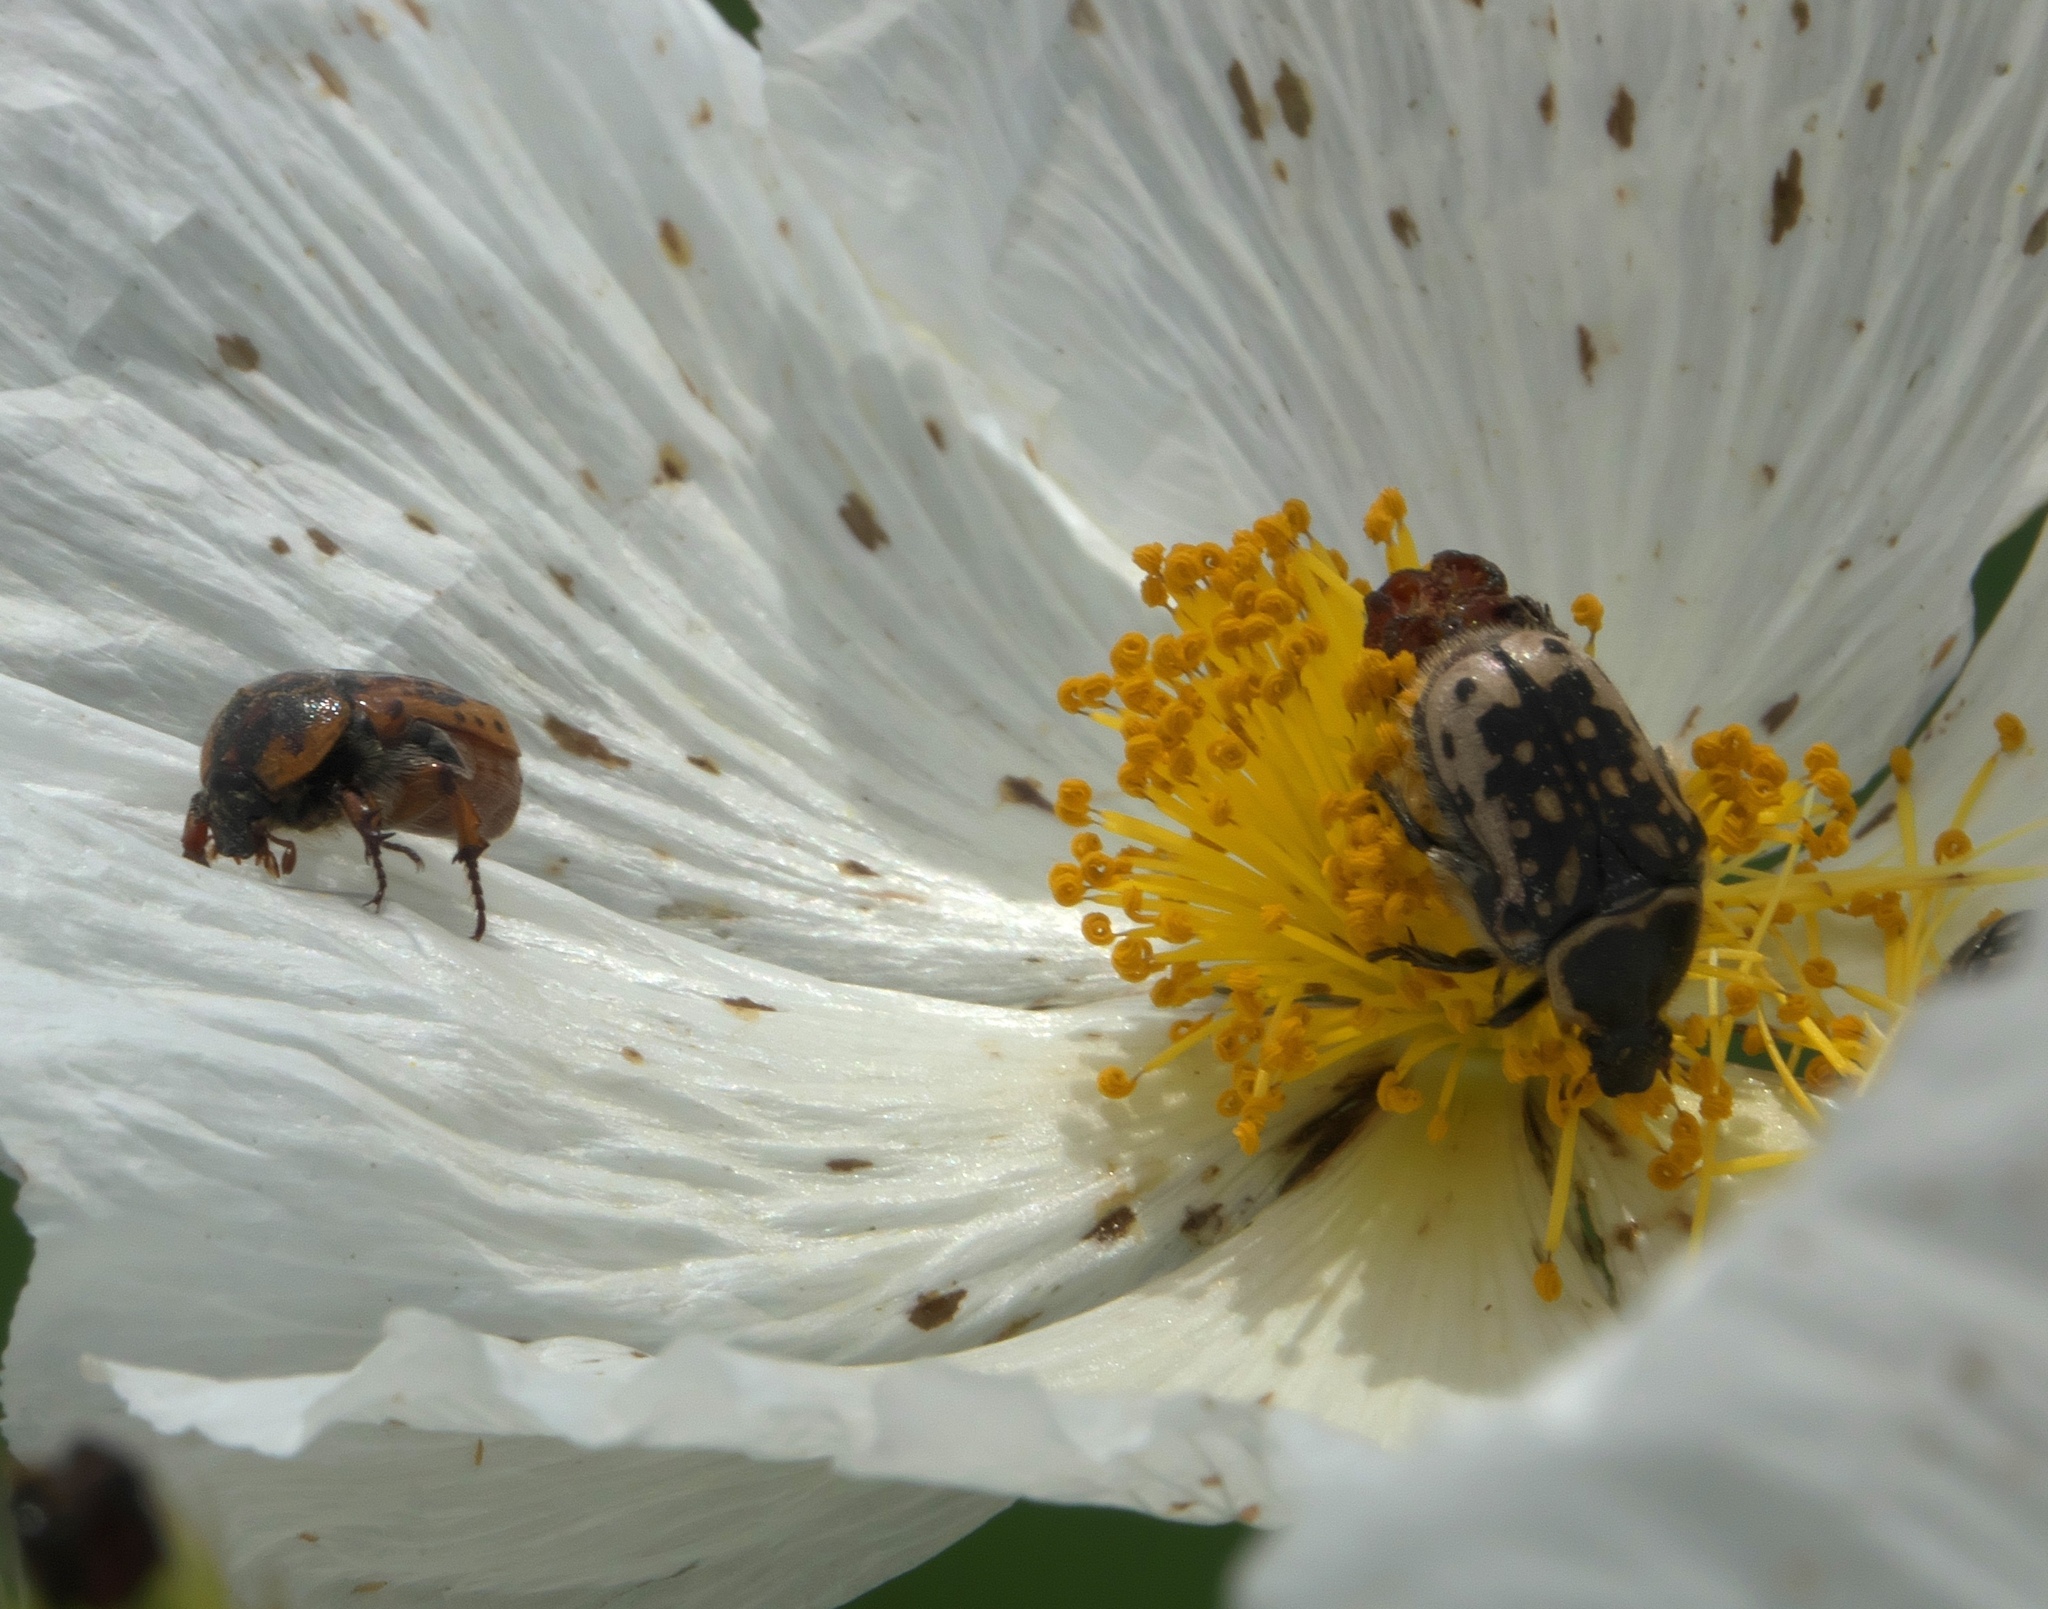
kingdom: Animalia
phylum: Arthropoda
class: Insecta
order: Coleoptera
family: Scarabaeidae
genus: Euphoria
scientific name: Euphoria kernii
